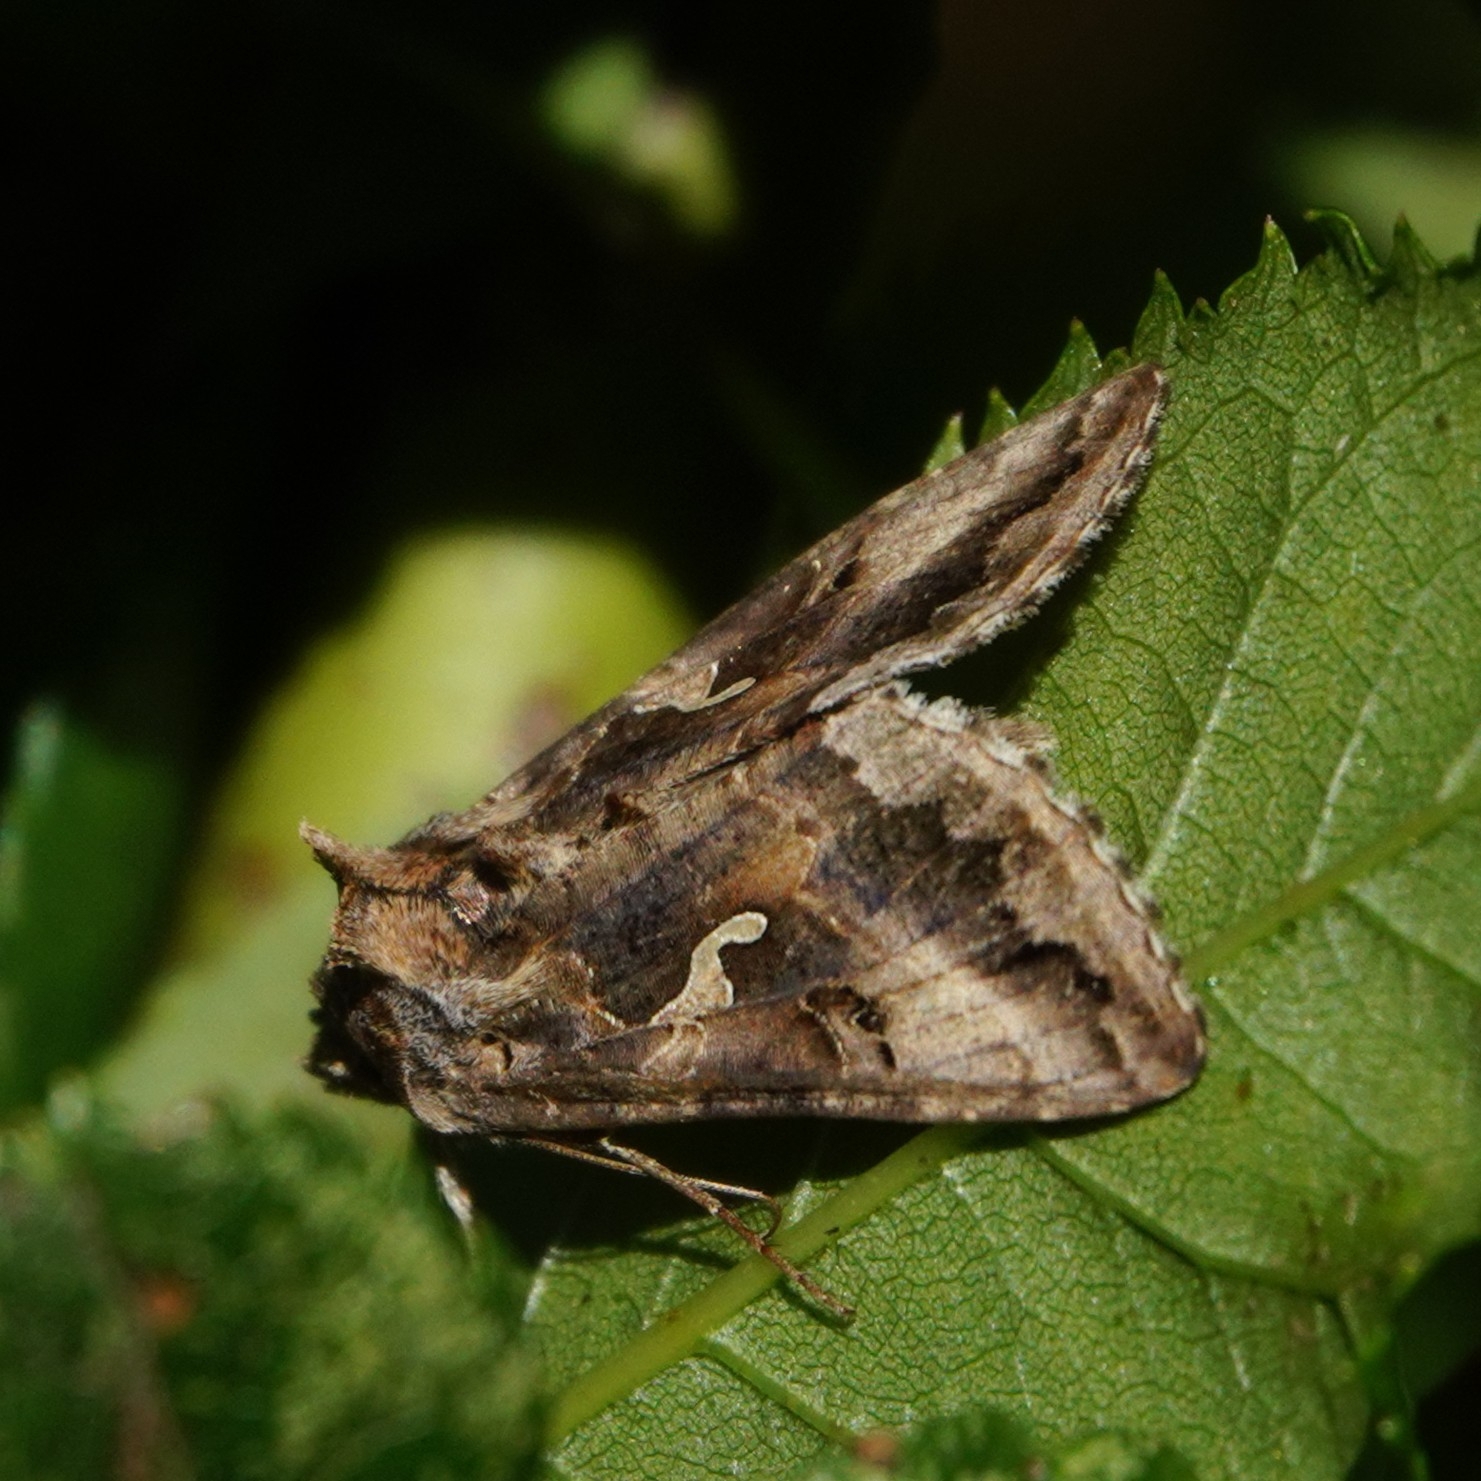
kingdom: Animalia
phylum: Arthropoda
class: Insecta
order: Lepidoptera
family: Noctuidae
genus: Autographa
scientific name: Autographa gamma
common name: Silver y
